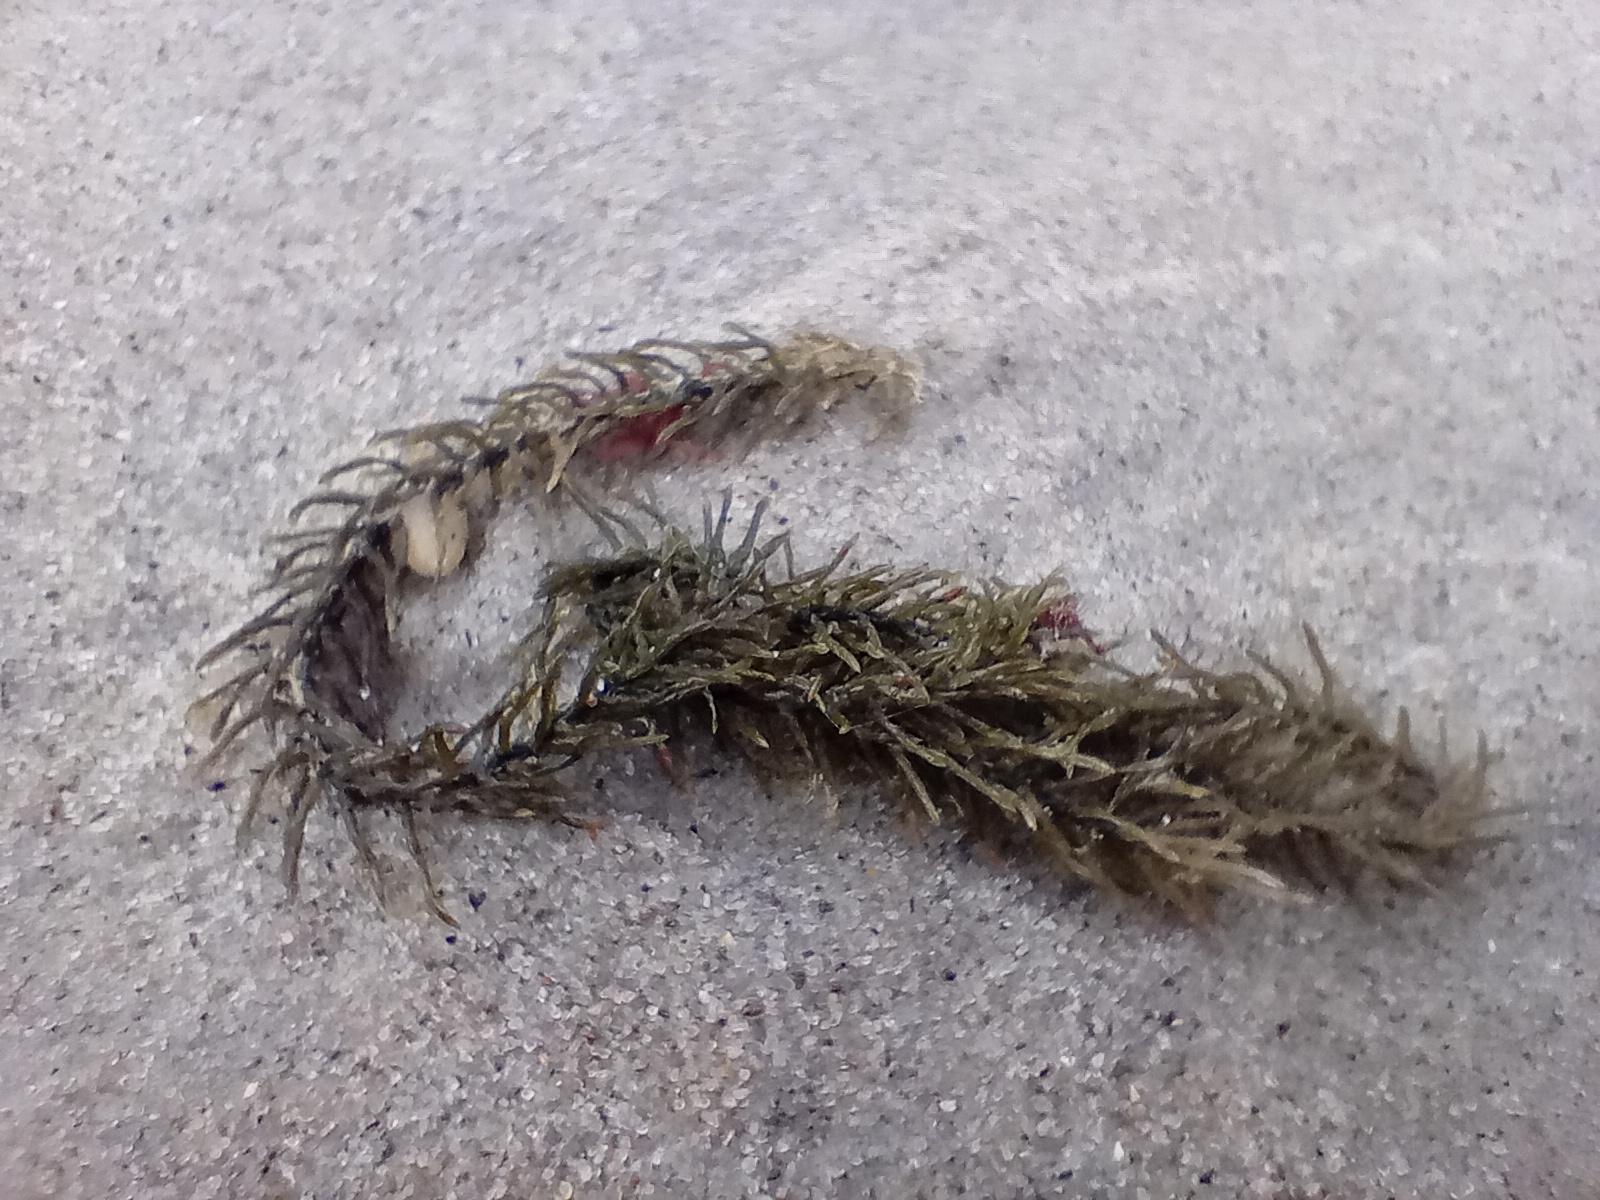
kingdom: Plantae
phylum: Chlorophyta
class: Ulvophyceae
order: Bryopsidales
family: Caulerpaceae
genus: Caulerpa
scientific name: Caulerpa brownii
